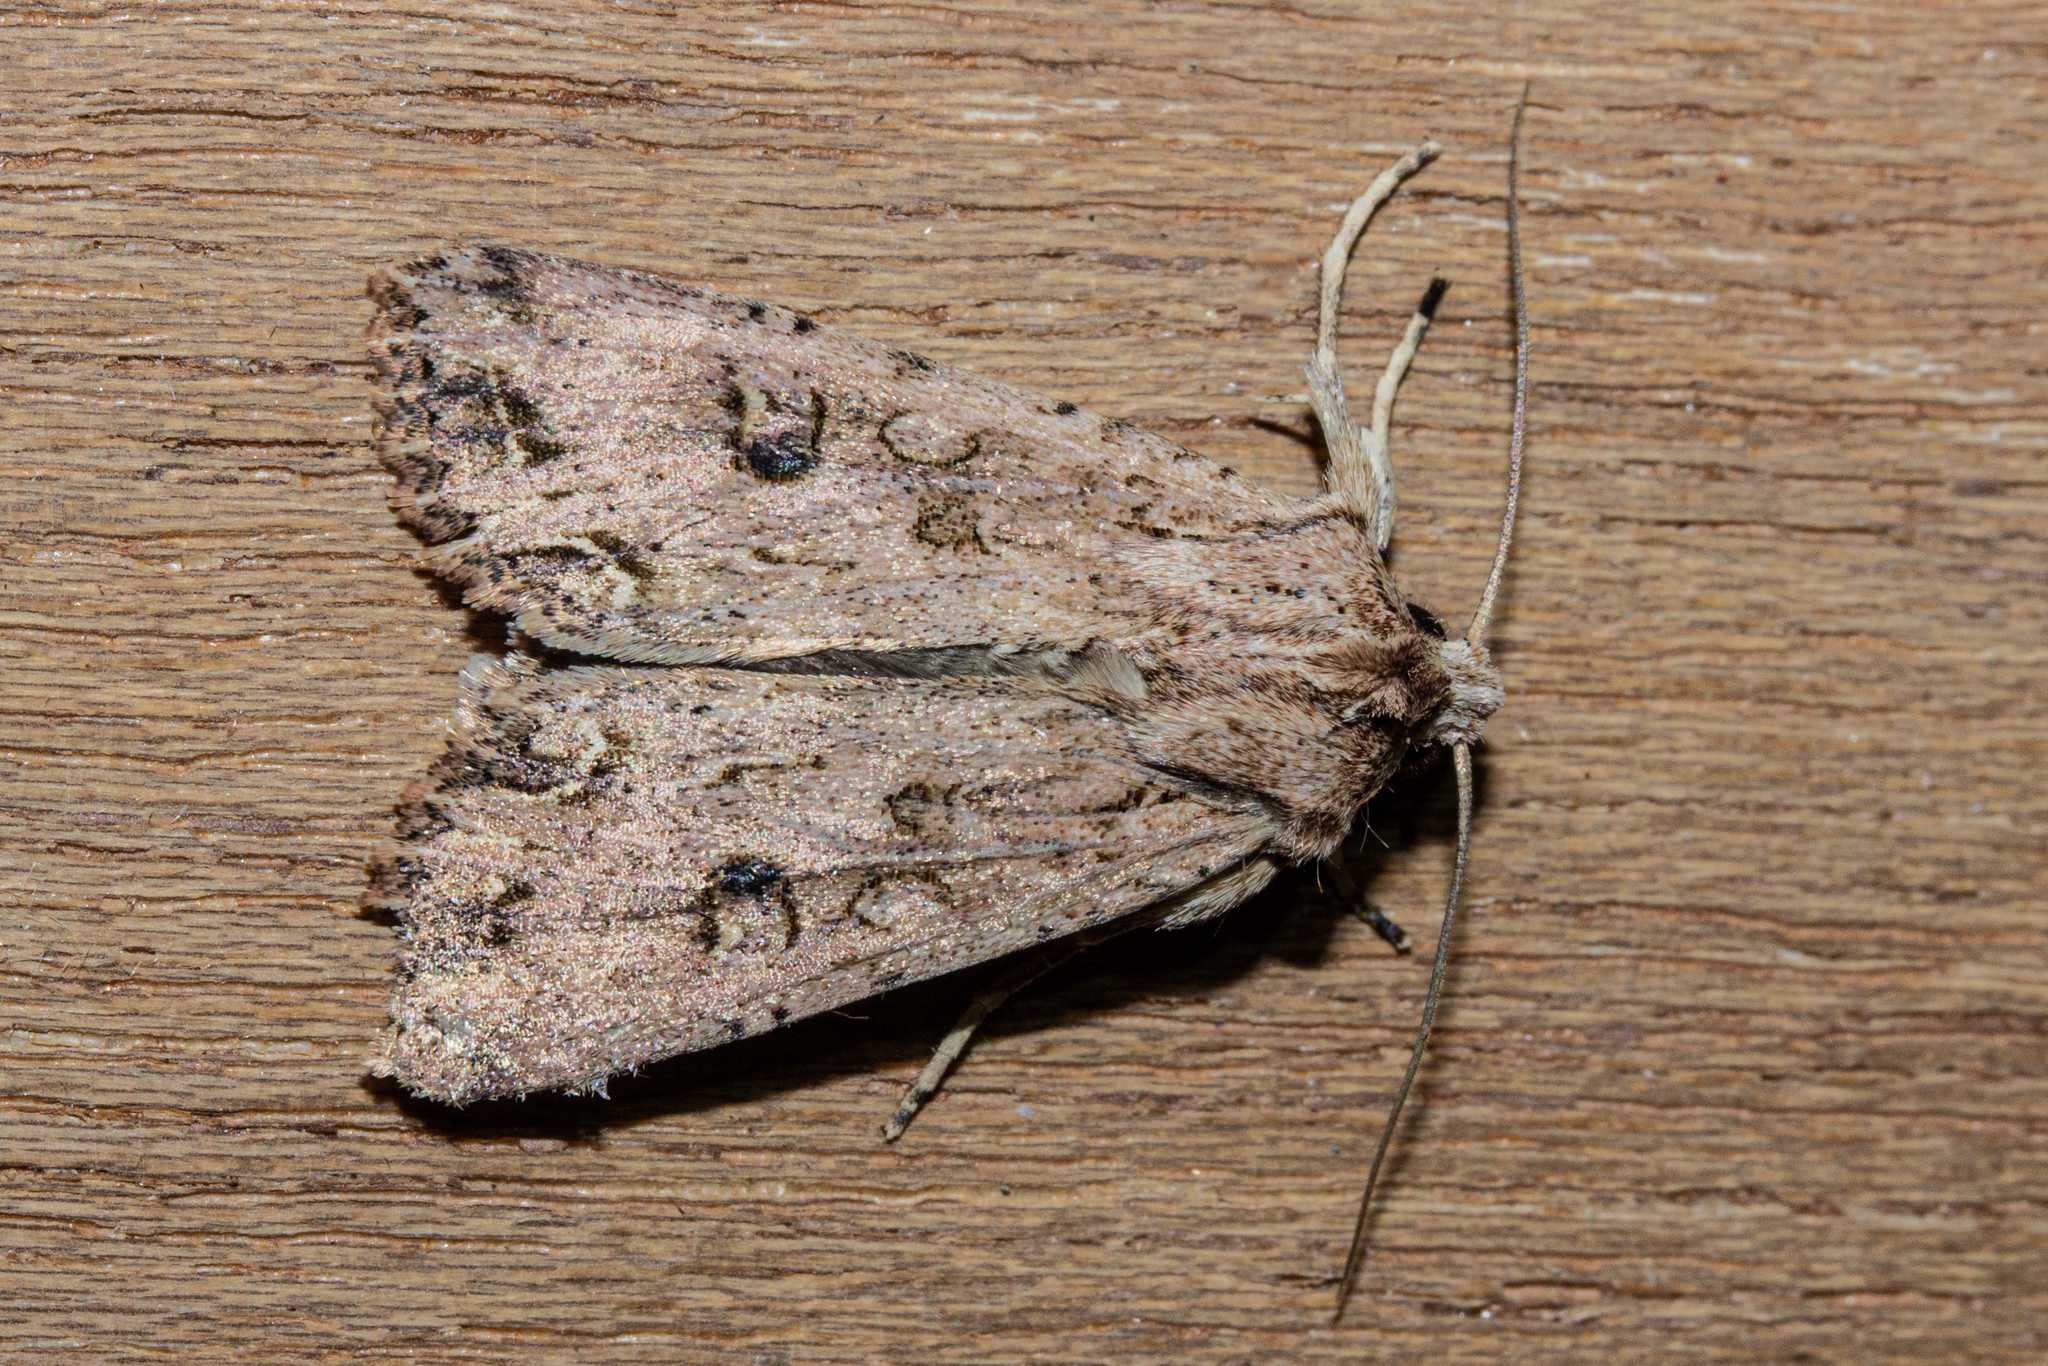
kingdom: Animalia
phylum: Arthropoda
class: Insecta
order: Lepidoptera
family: Noctuidae
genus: Ichneutica
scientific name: Ichneutica lignana
